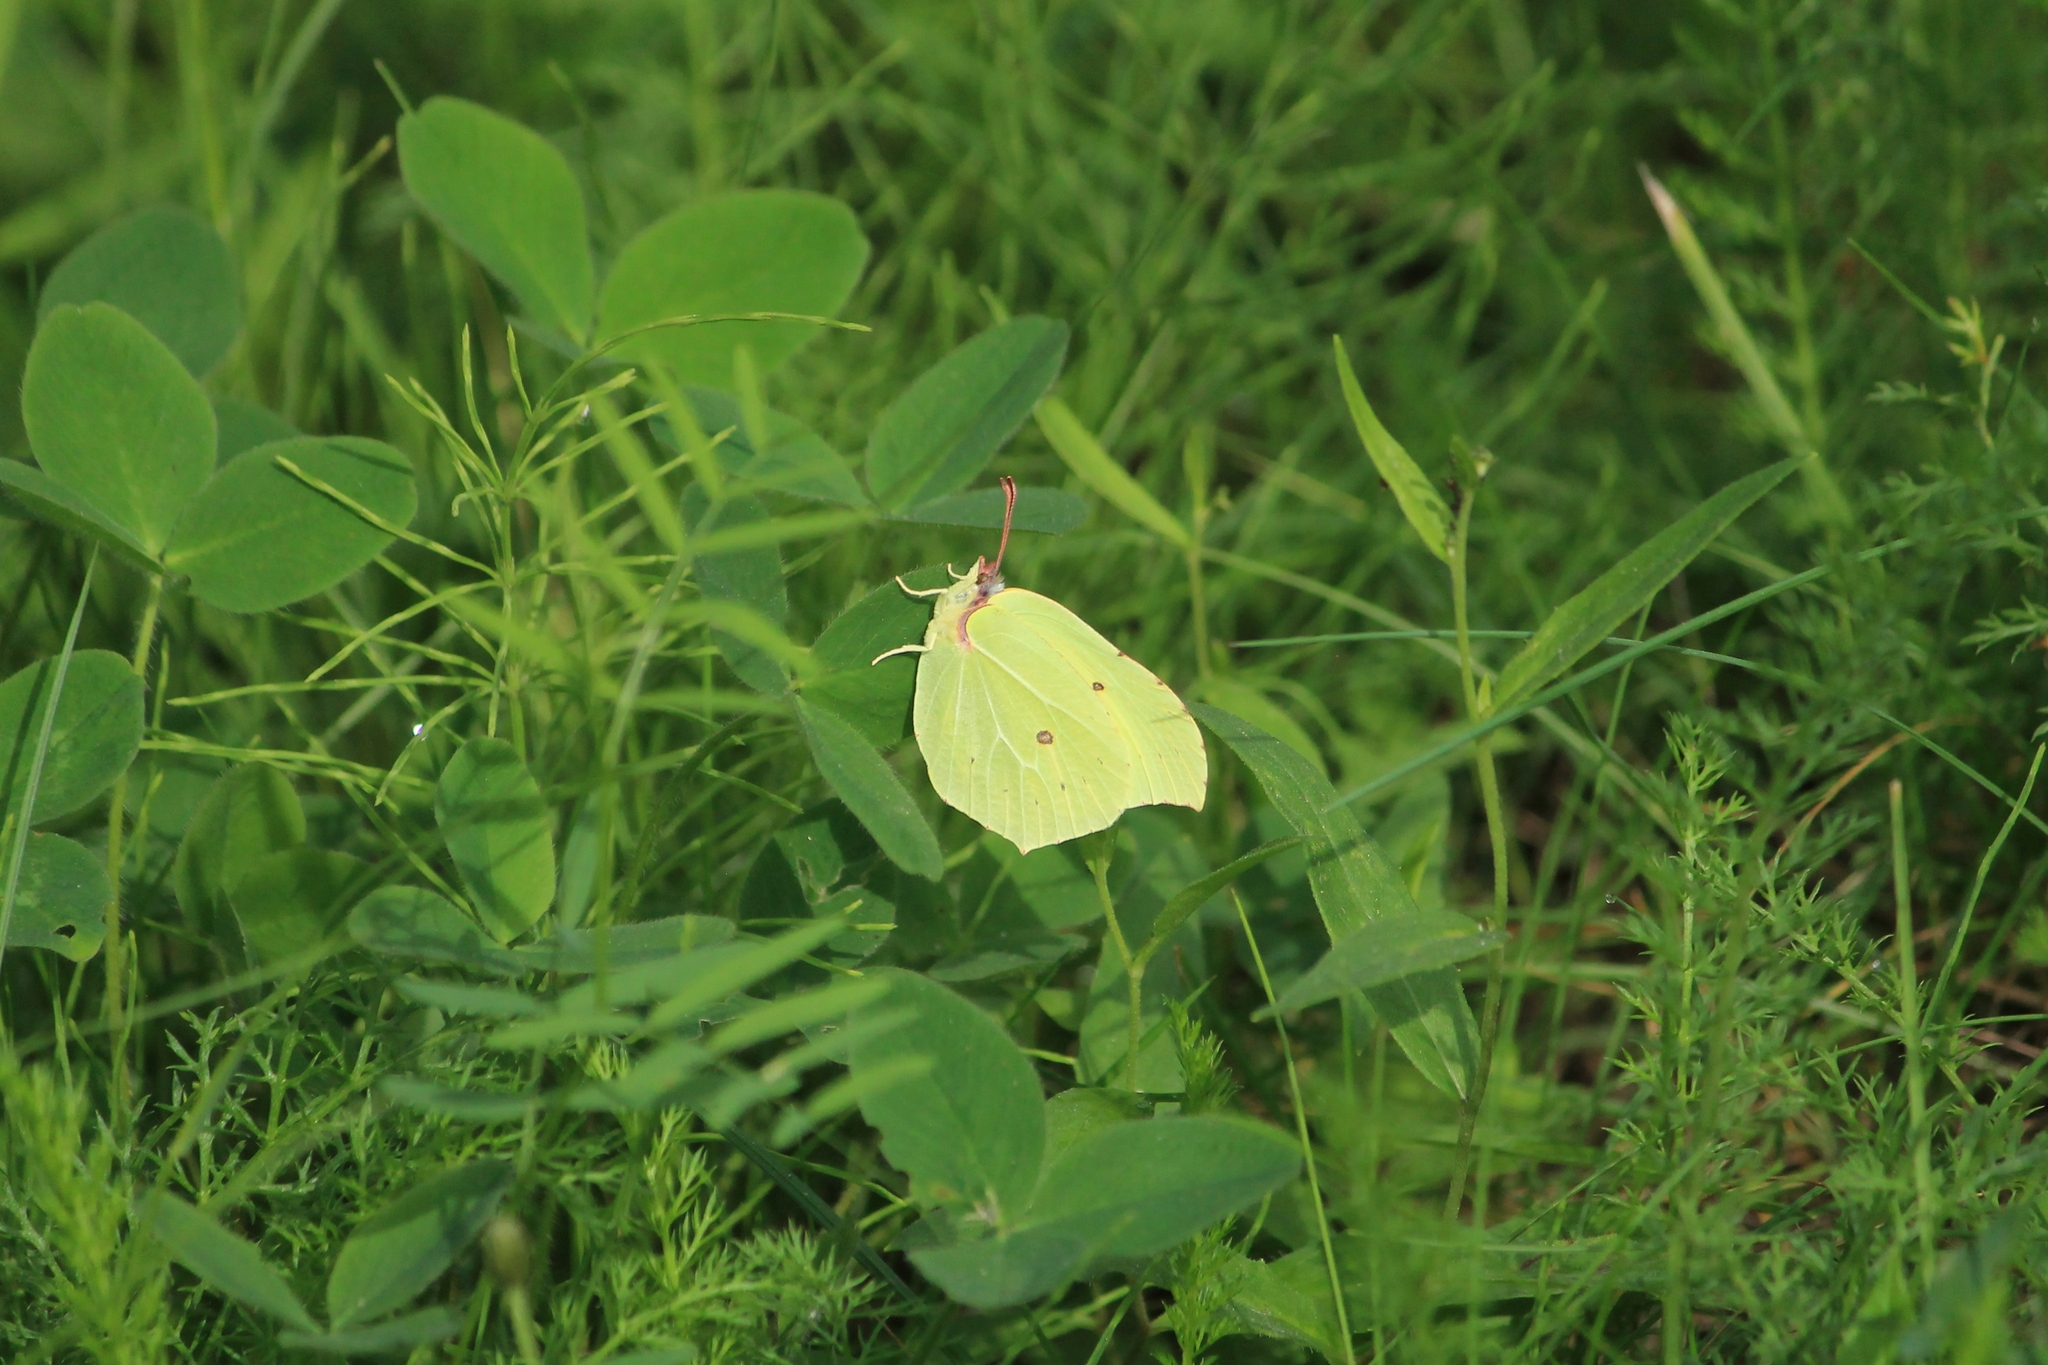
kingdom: Animalia
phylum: Arthropoda
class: Insecta
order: Lepidoptera
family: Pieridae
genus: Gonepteryx
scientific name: Gonepteryx rhamni
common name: Brimstone
